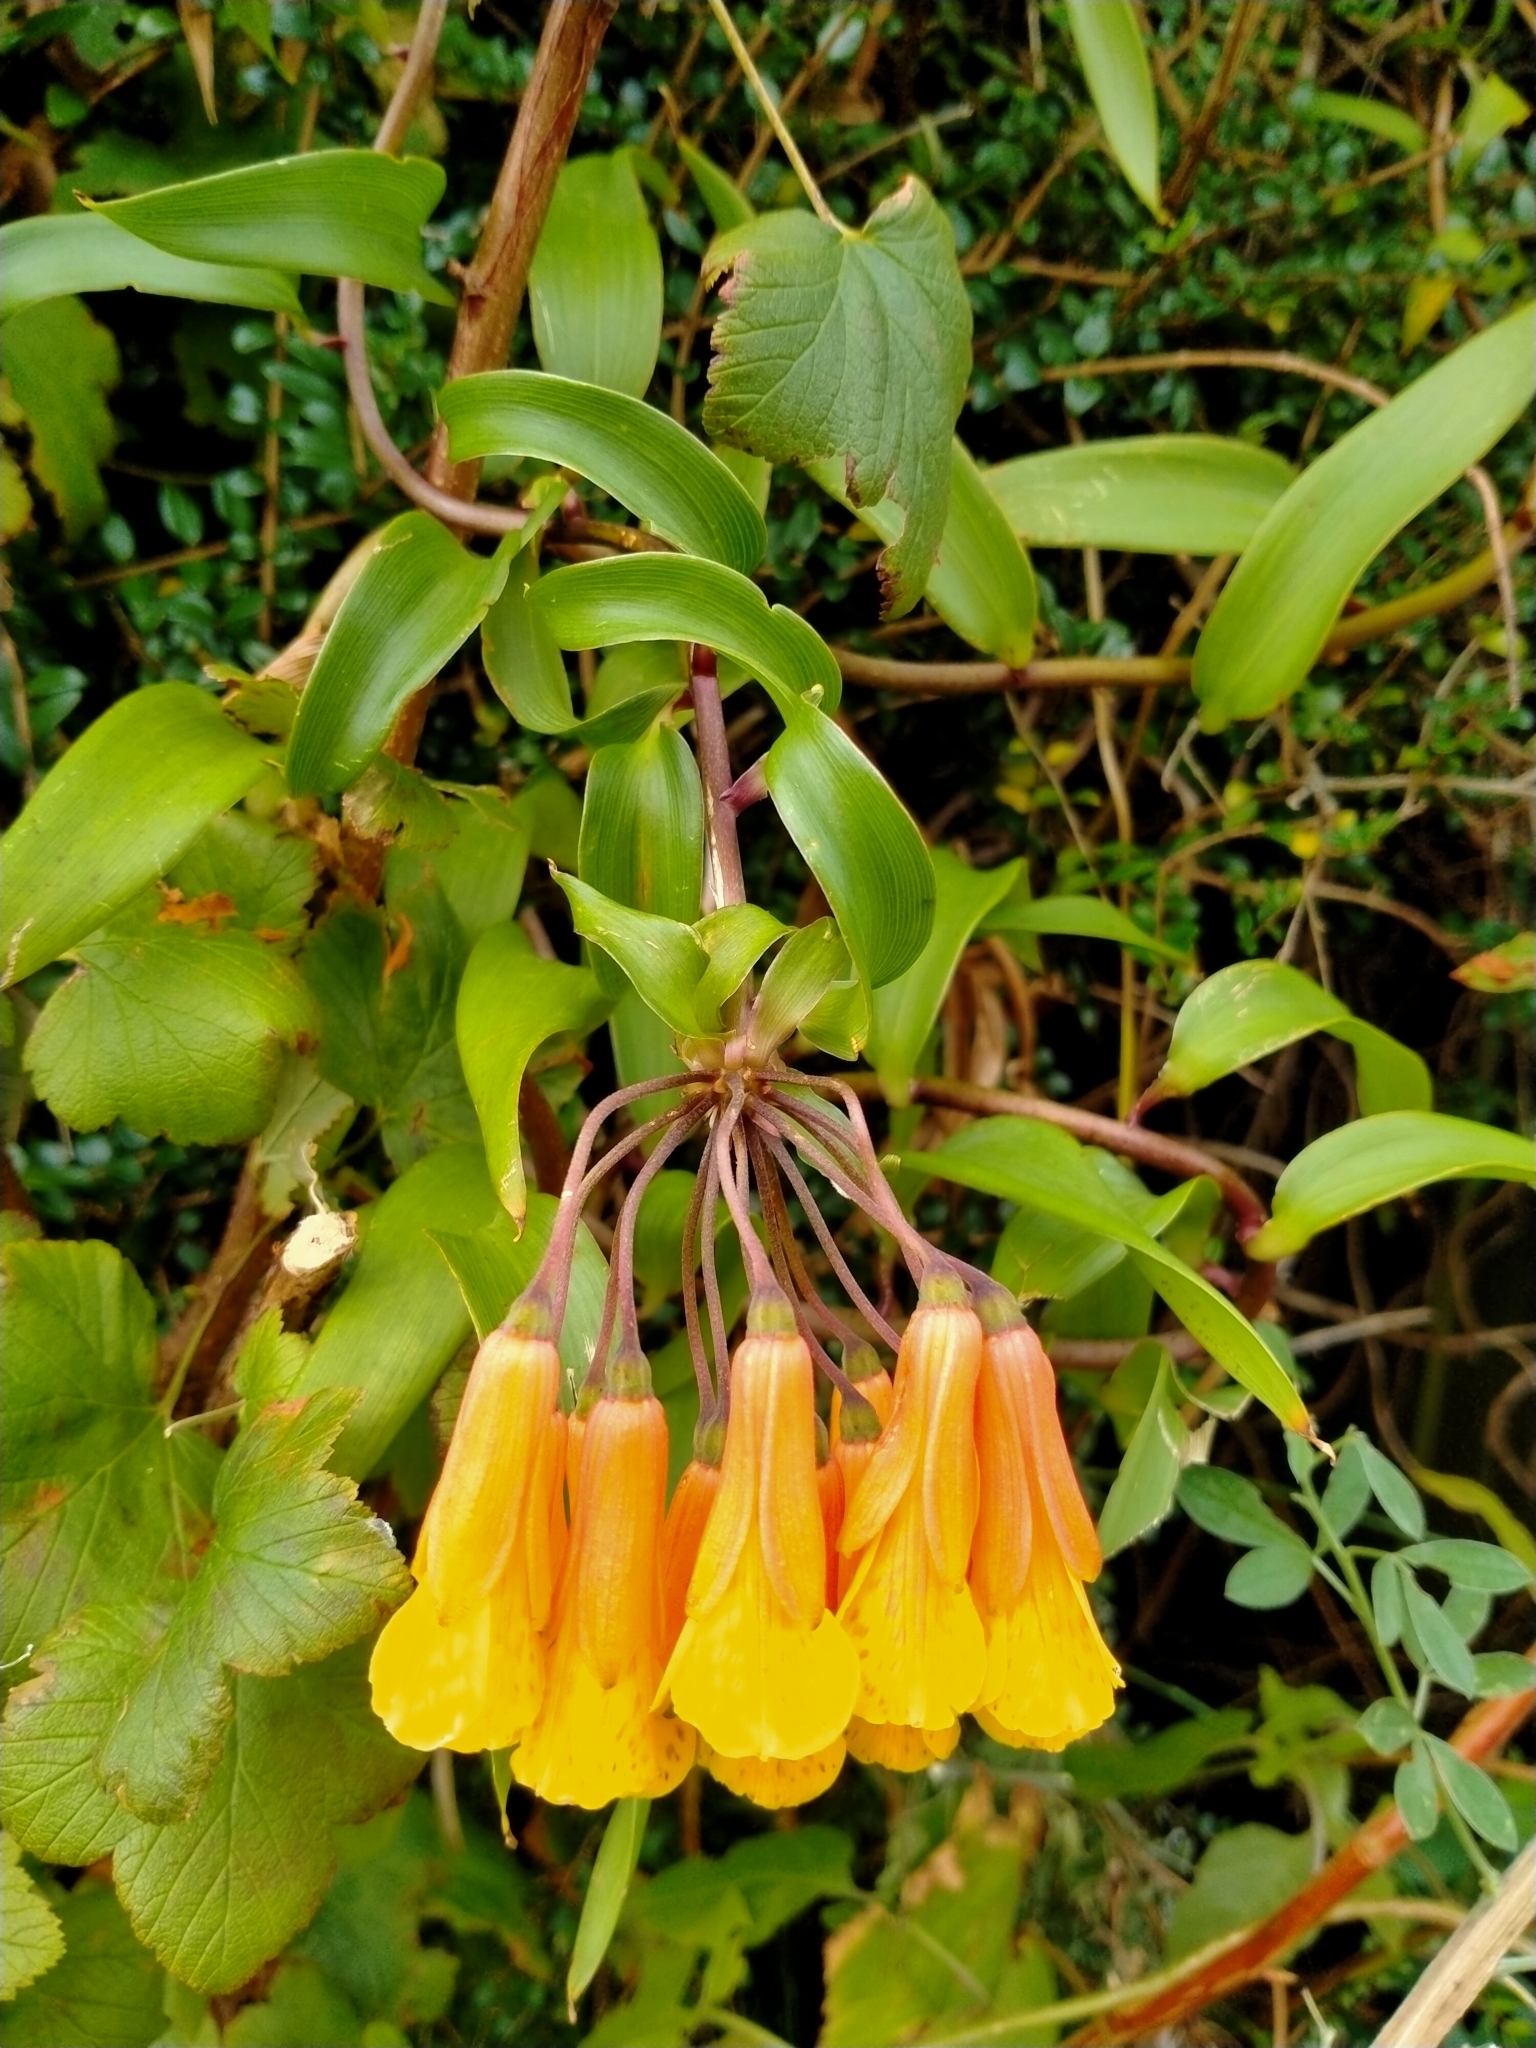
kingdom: Plantae
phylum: Tracheophyta
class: Liliopsida
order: Liliales
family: Alstroemeriaceae
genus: Bomarea
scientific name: Bomarea multiflora
